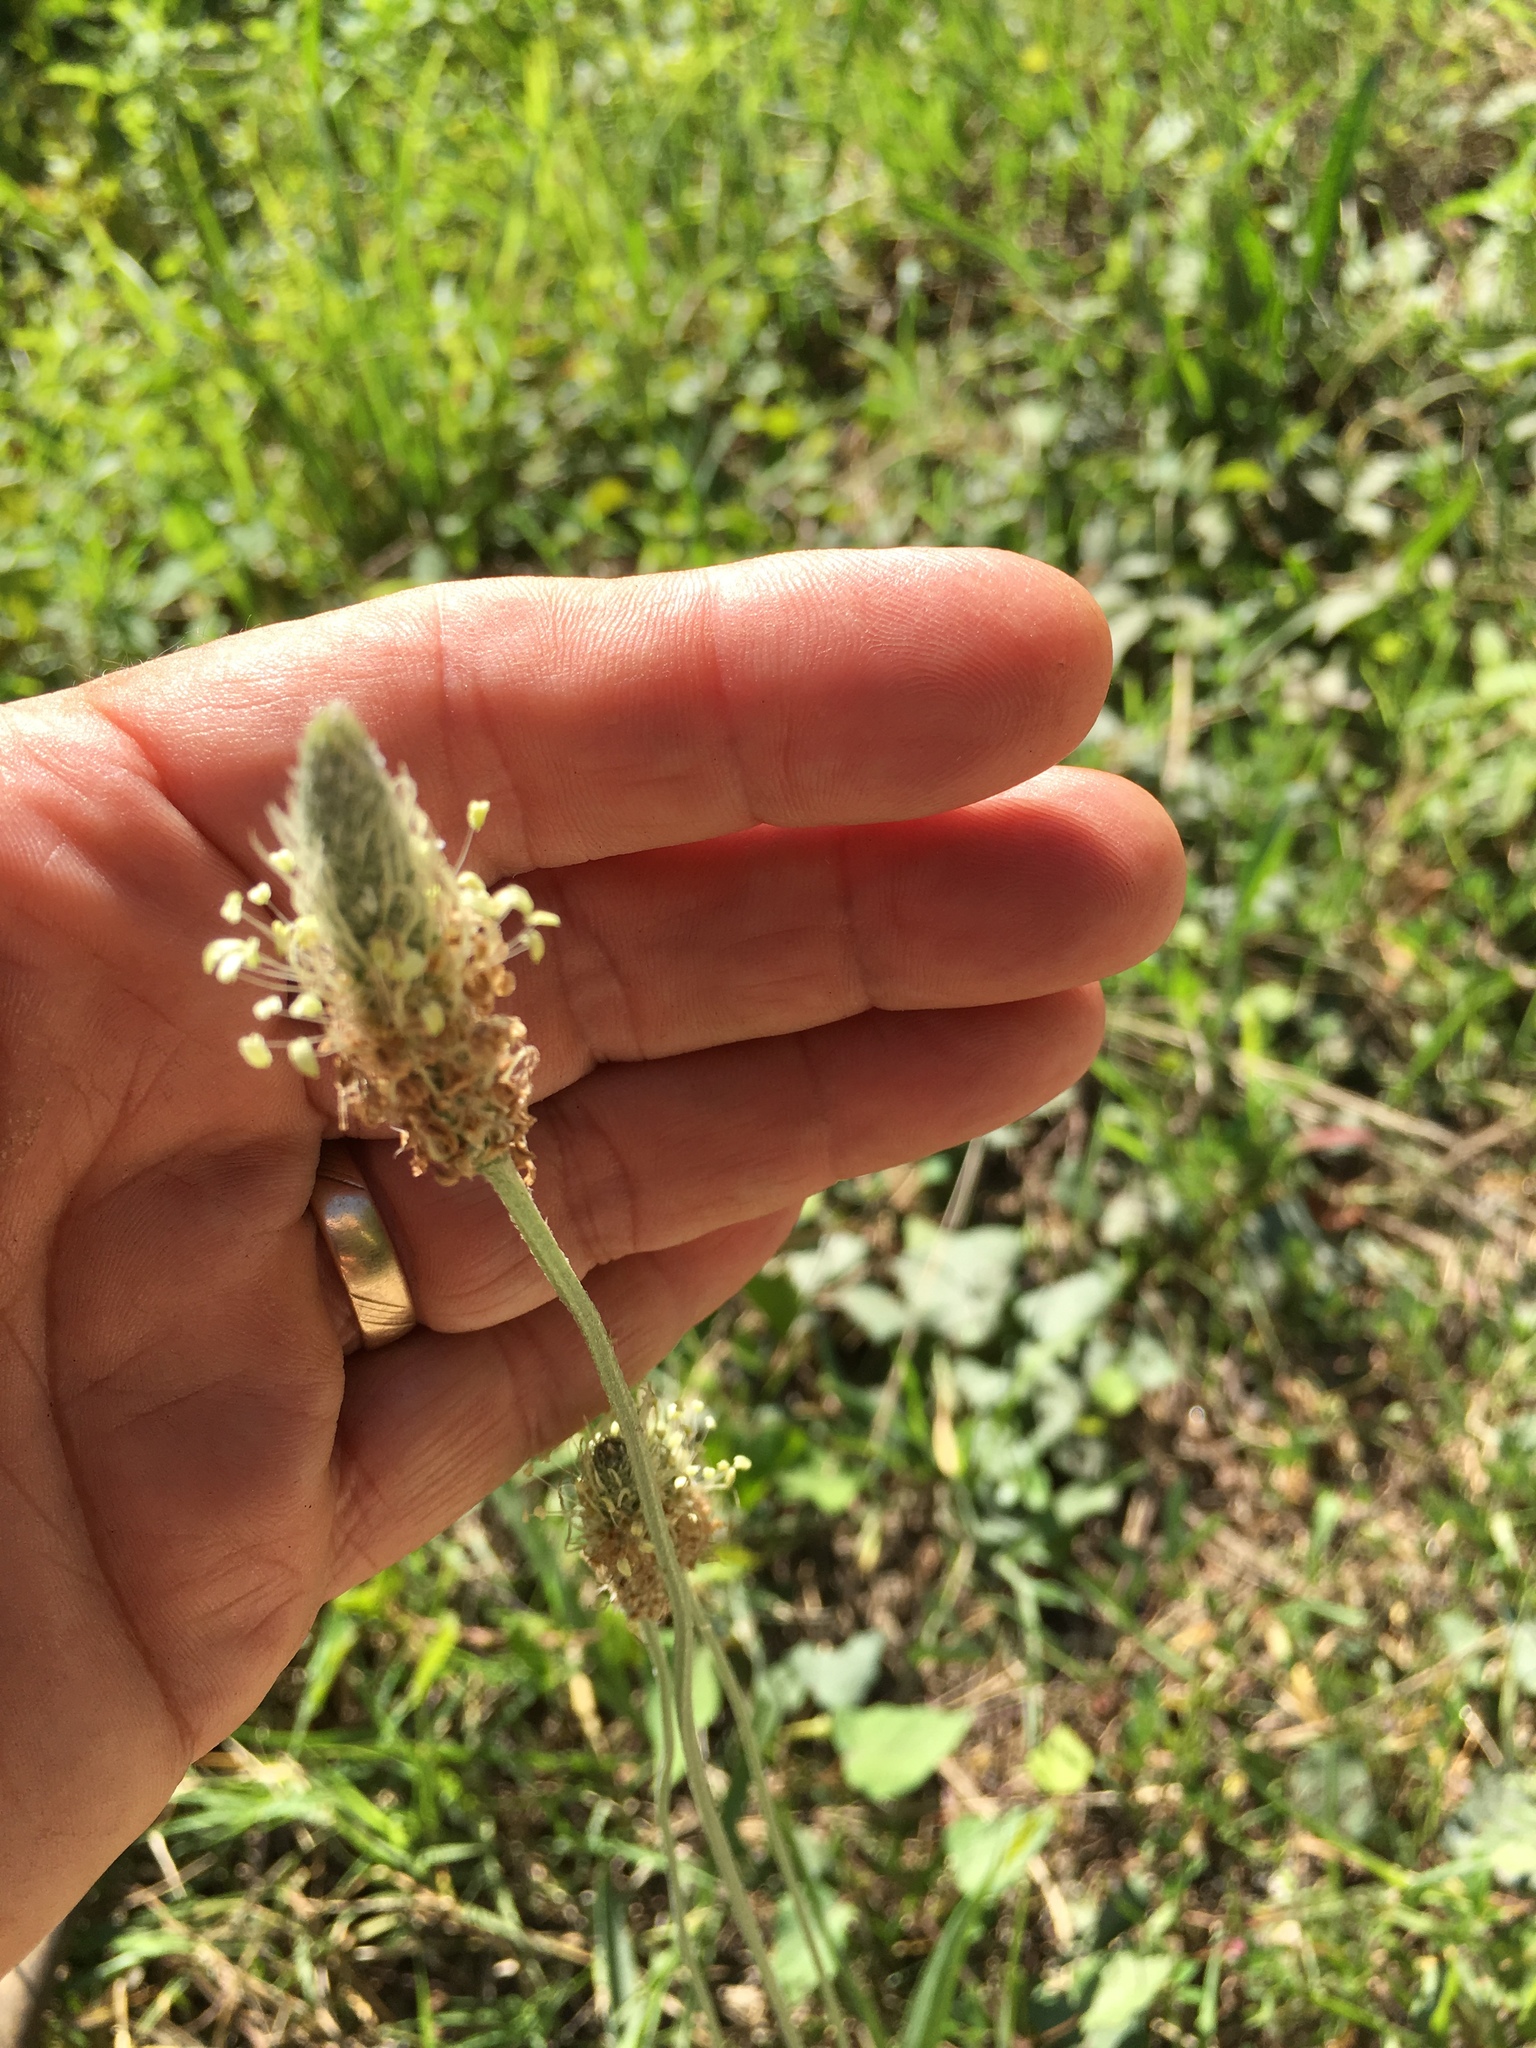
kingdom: Plantae
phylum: Tracheophyta
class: Magnoliopsida
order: Lamiales
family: Plantaginaceae
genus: Plantago
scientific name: Plantago lanceolata
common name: Ribwort plantain
